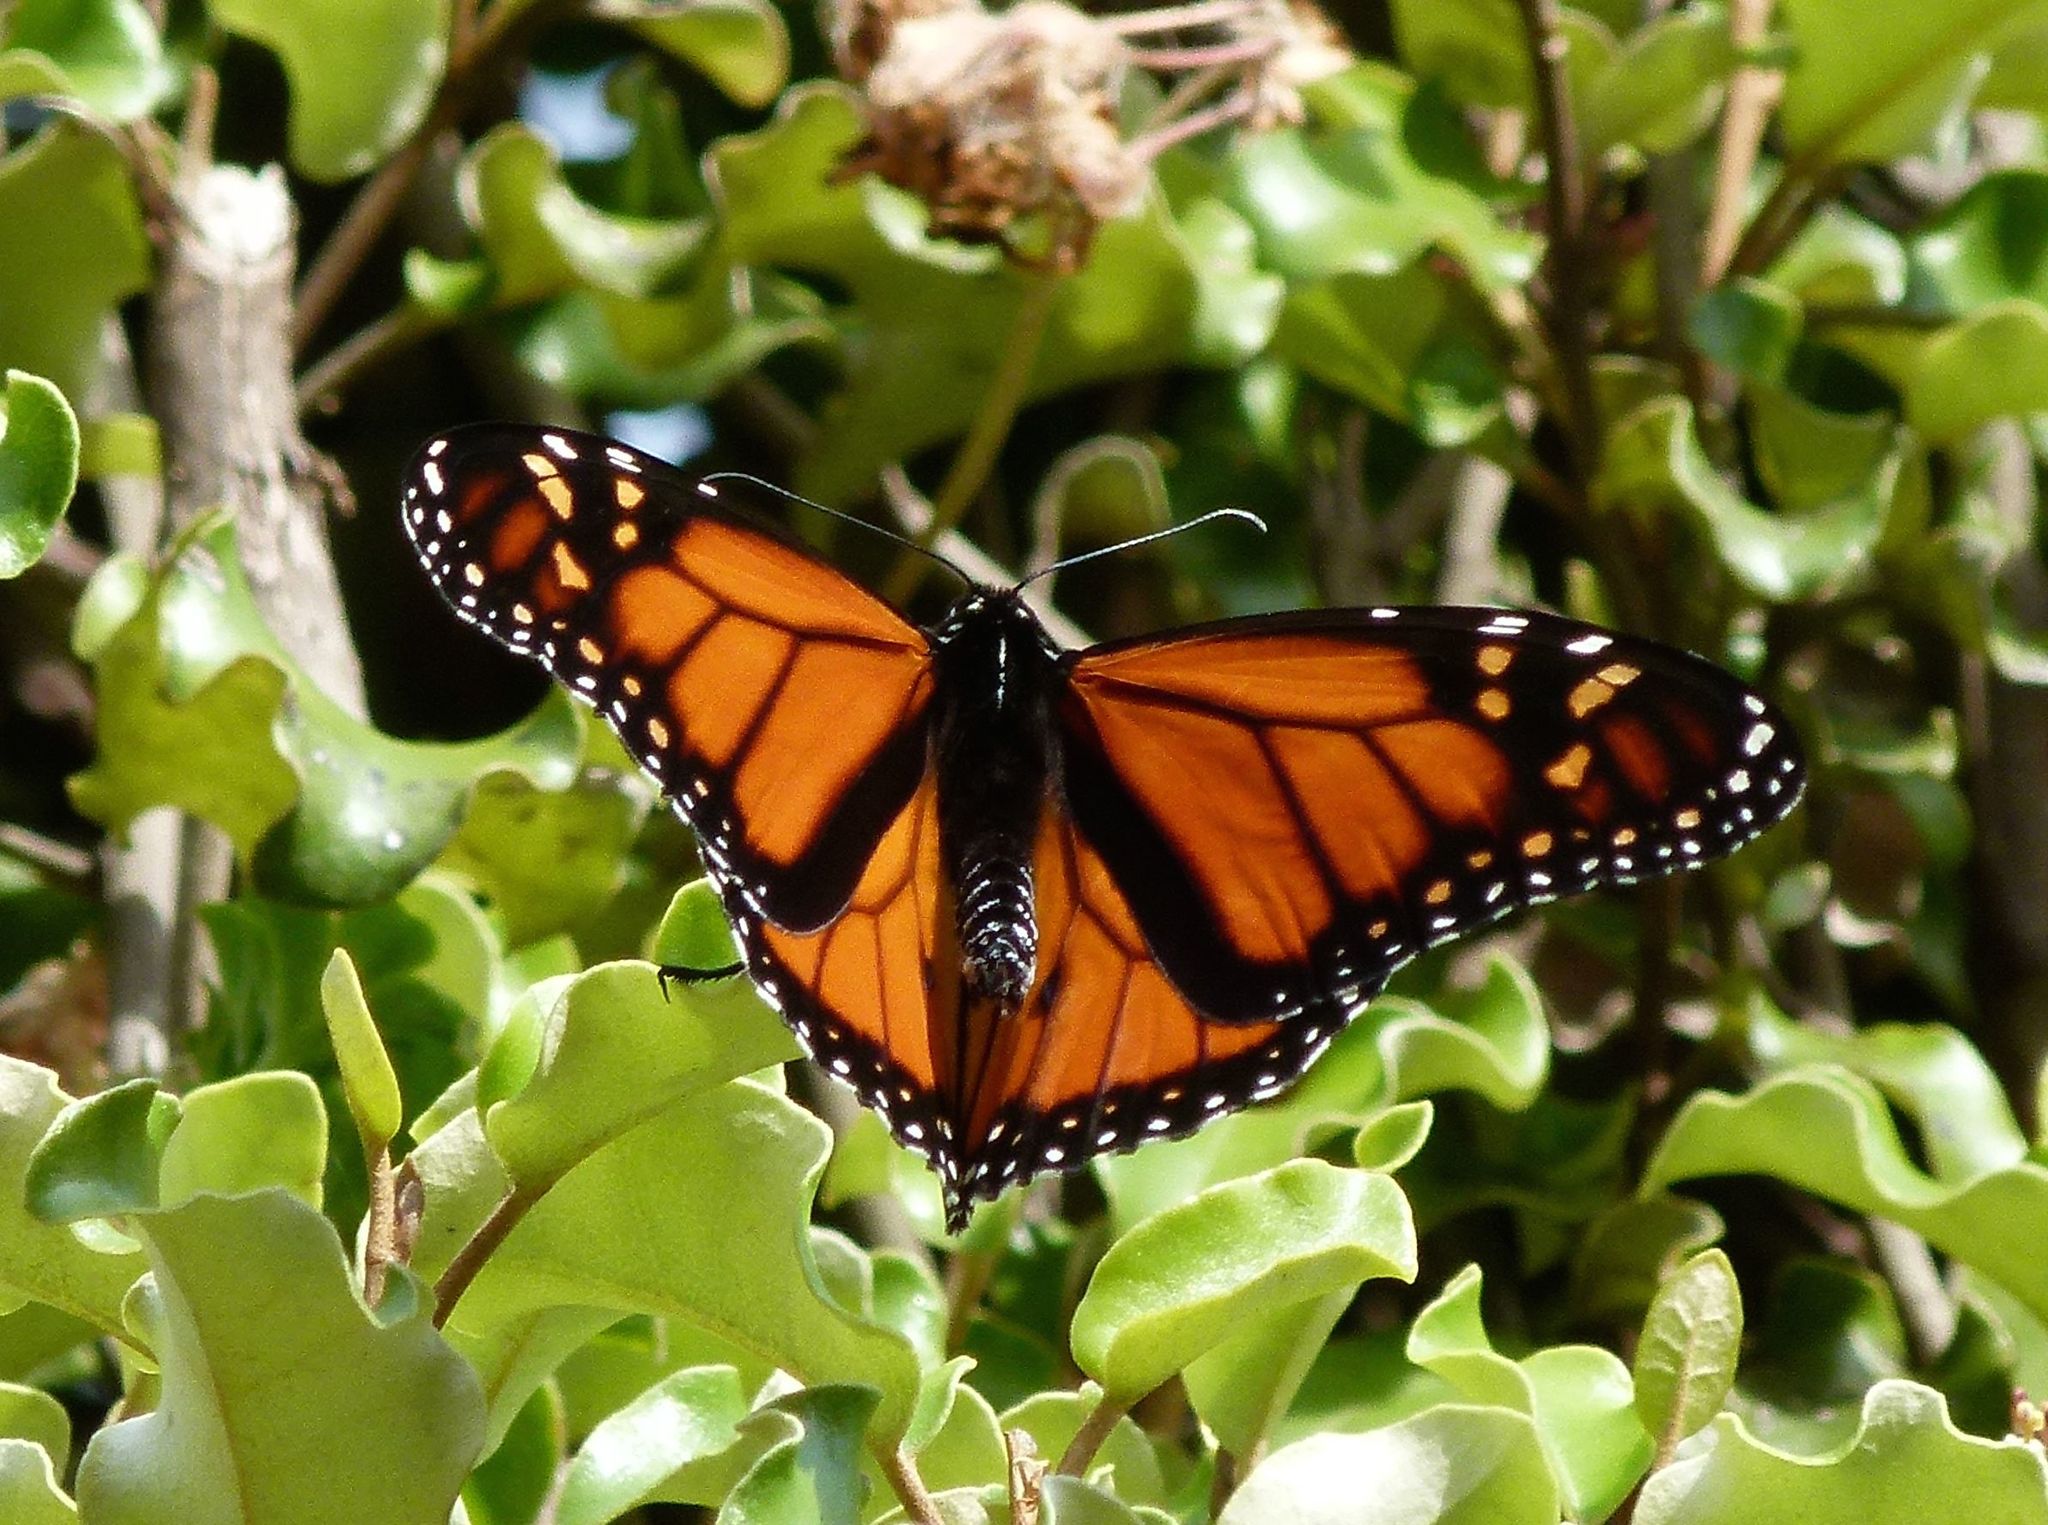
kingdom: Animalia
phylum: Arthropoda
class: Insecta
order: Lepidoptera
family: Nymphalidae
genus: Danaus
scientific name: Danaus plexippus
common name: Monarch
